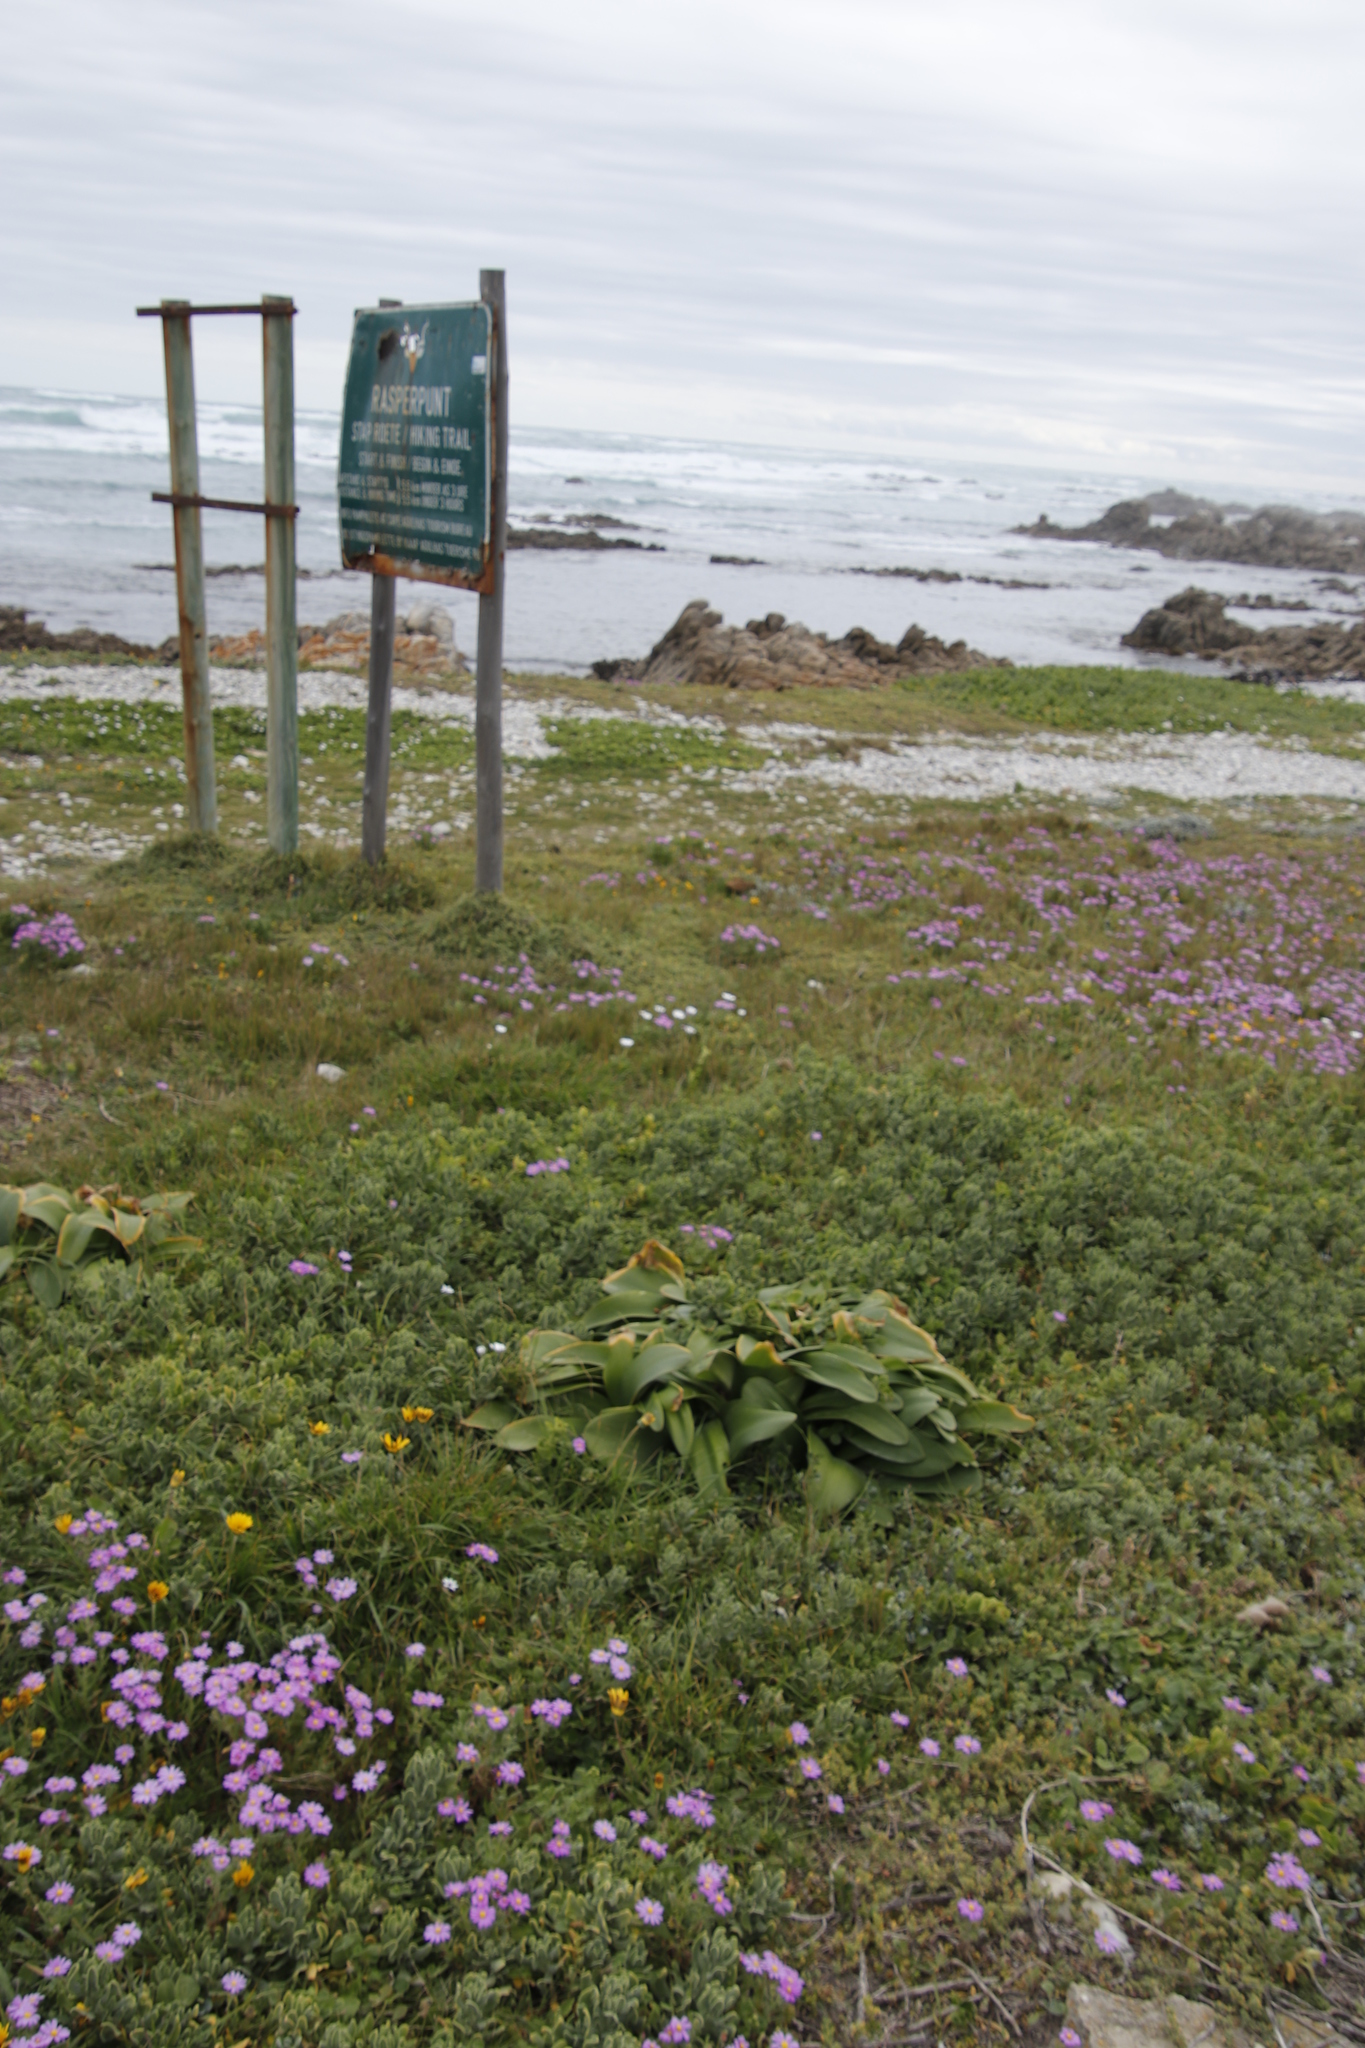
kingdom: Plantae
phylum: Tracheophyta
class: Liliopsida
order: Asparagales
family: Amaryllidaceae
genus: Haemanthus
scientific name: Haemanthus coccineus
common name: Cape-tulip
